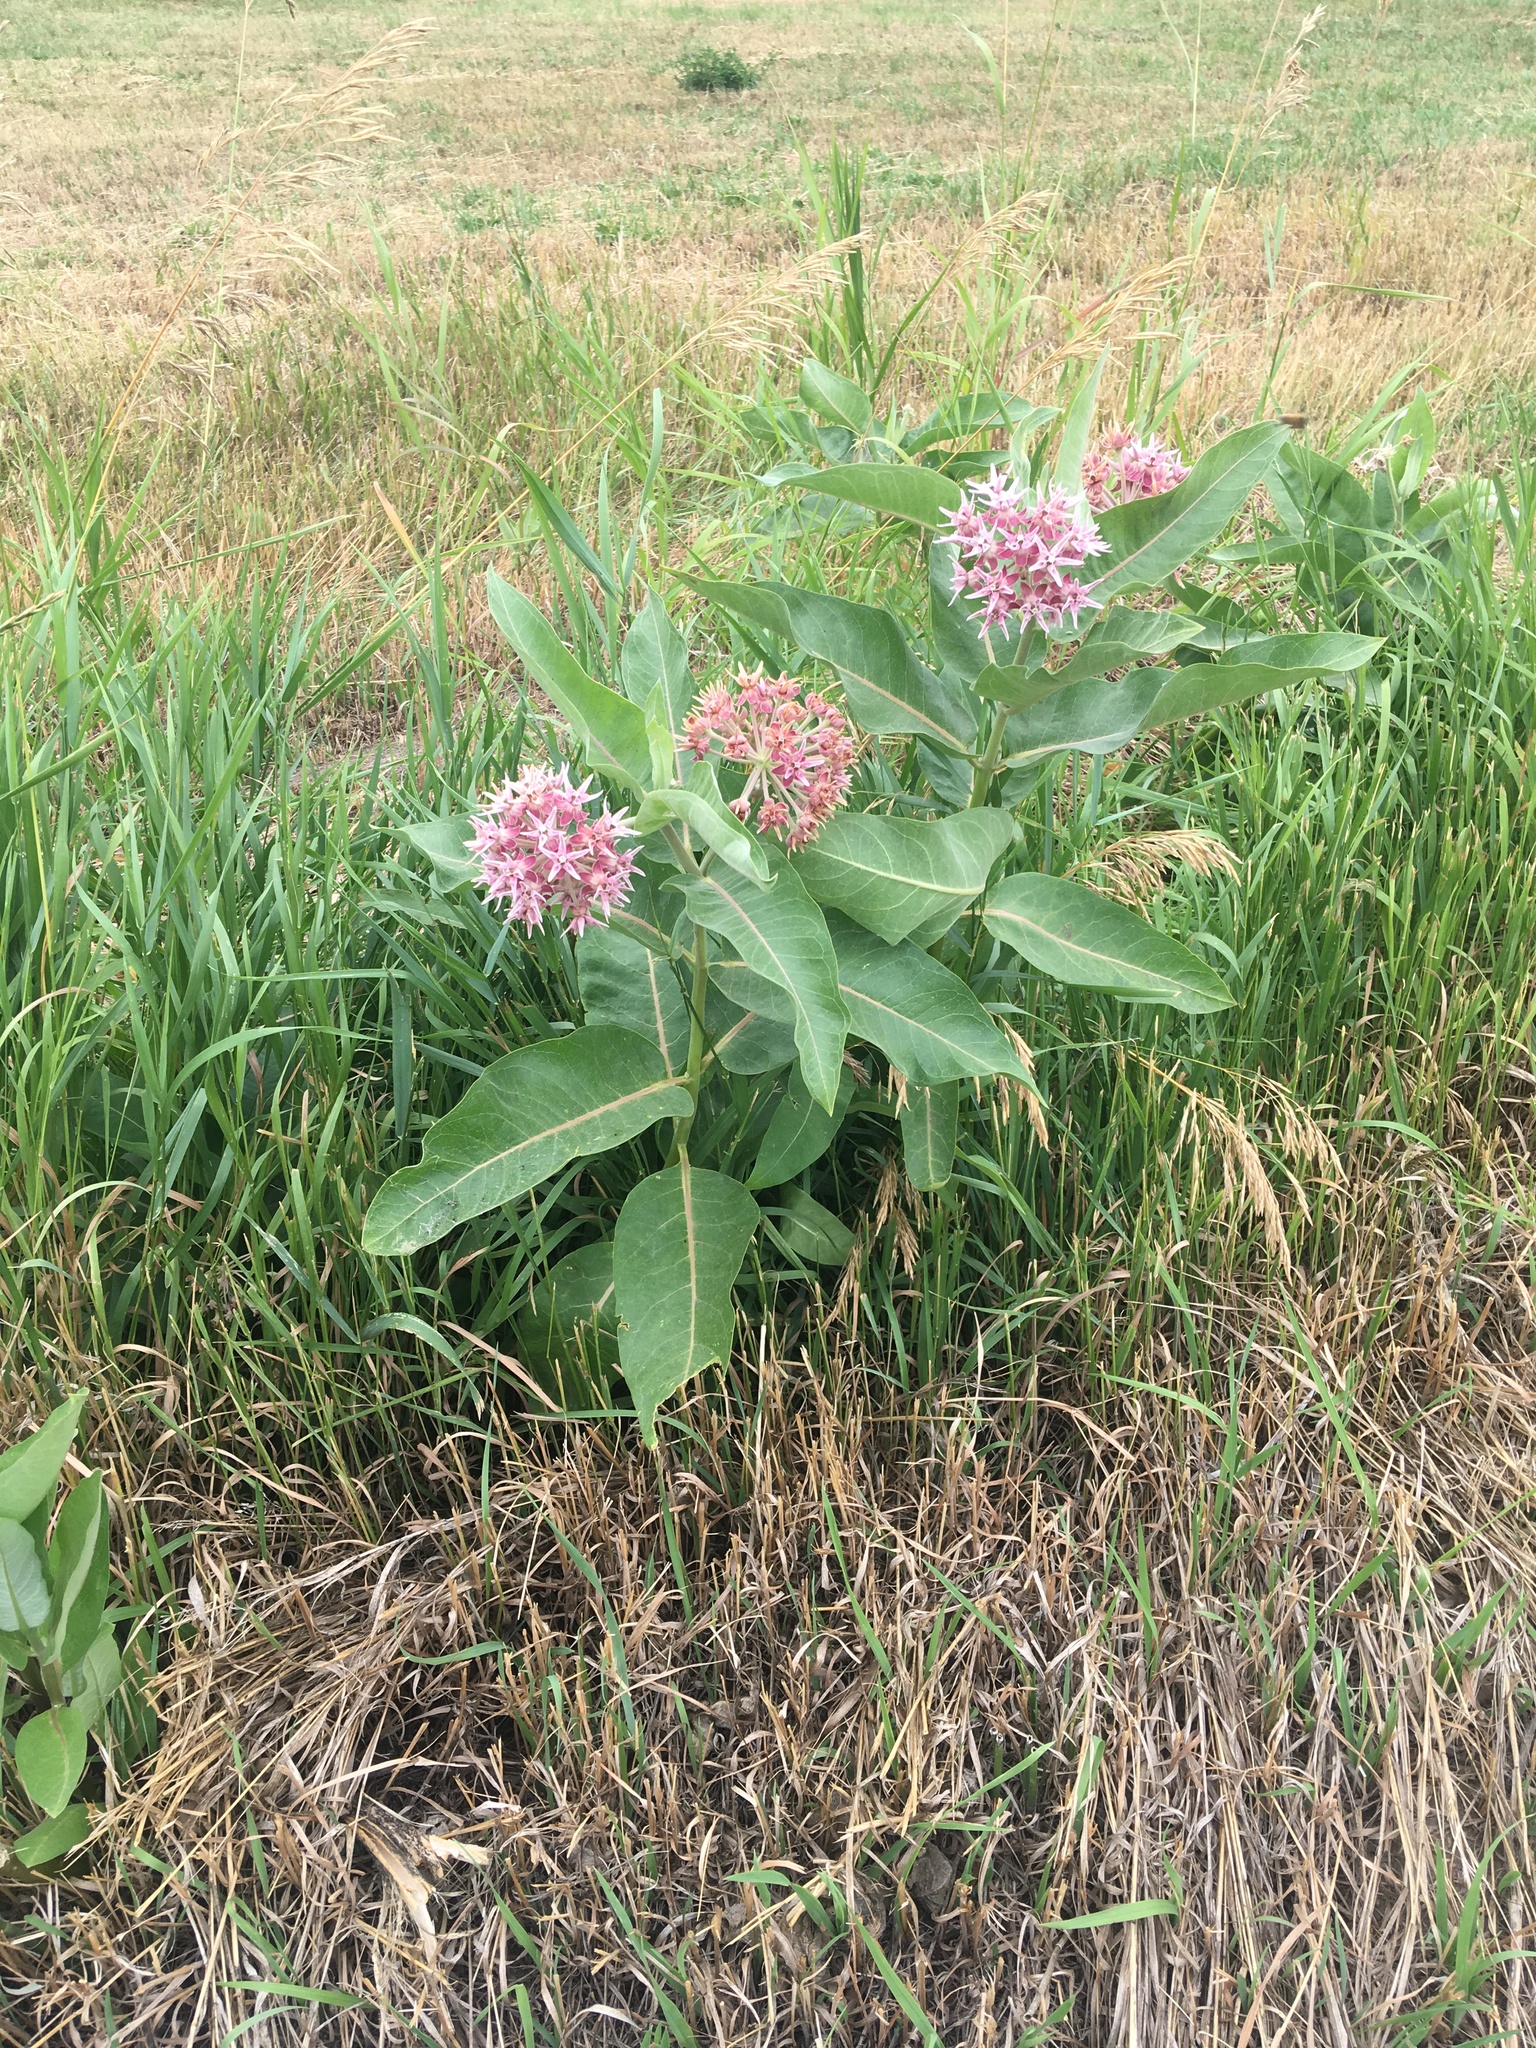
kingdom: Plantae
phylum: Tracheophyta
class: Magnoliopsida
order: Gentianales
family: Apocynaceae
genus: Asclepias
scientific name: Asclepias speciosa
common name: Showy milkweed
